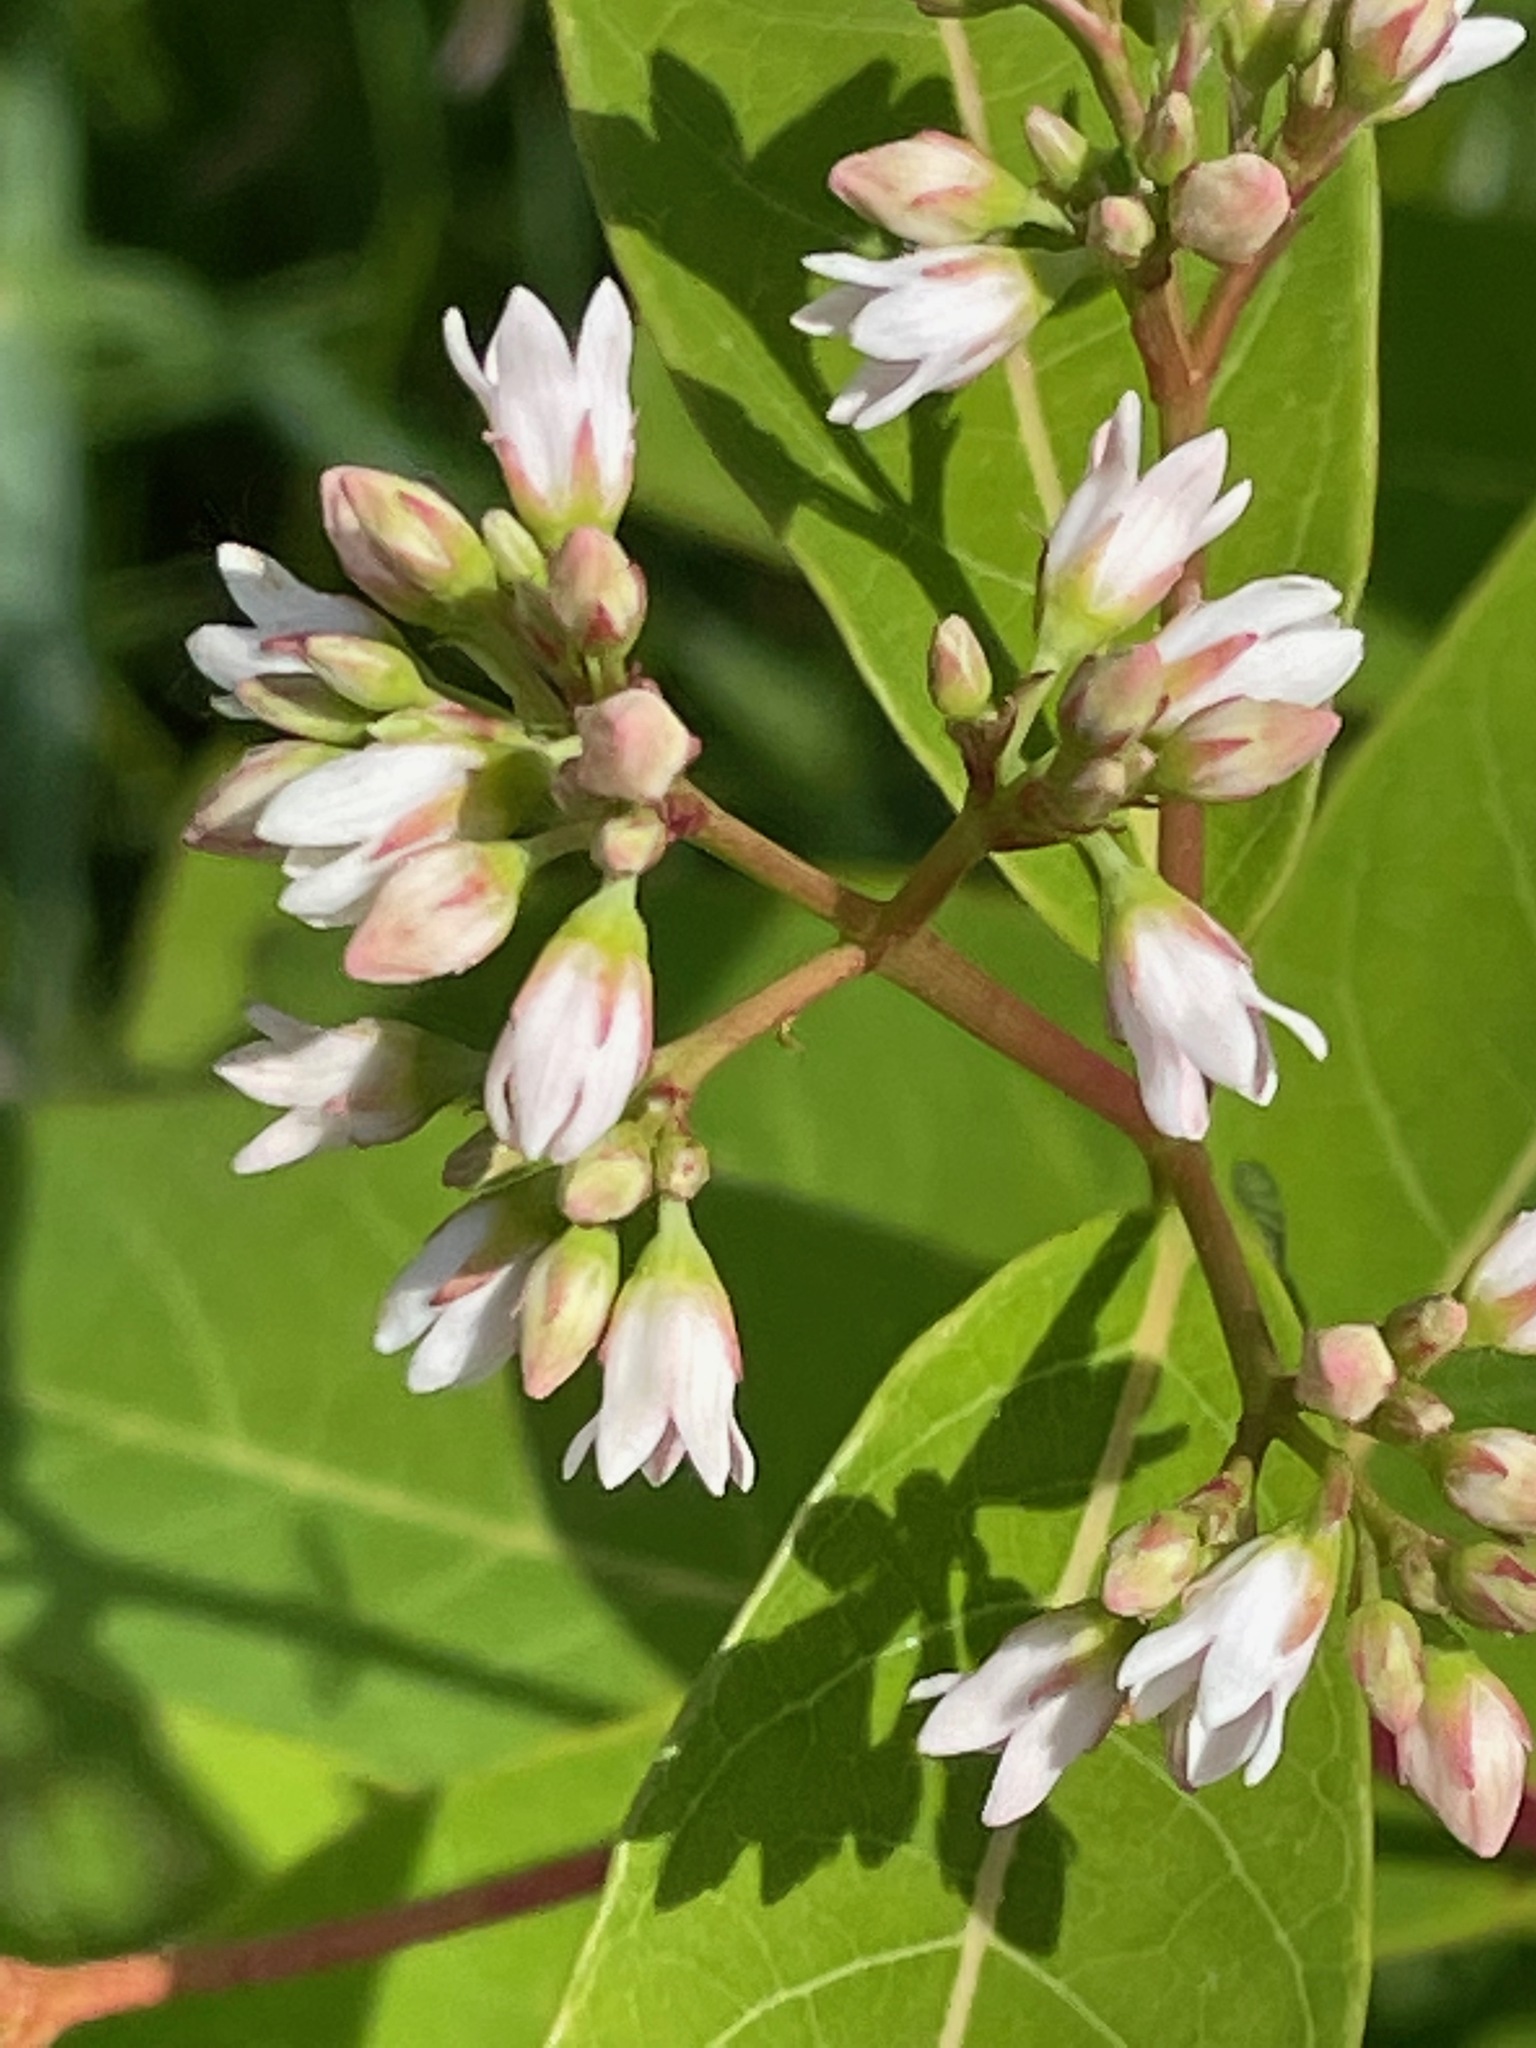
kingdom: Plantae
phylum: Tracheophyta
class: Magnoliopsida
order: Gentianales
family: Apocynaceae
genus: Apocynum
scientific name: Apocynum cannabinum
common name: Hemp dogbane
